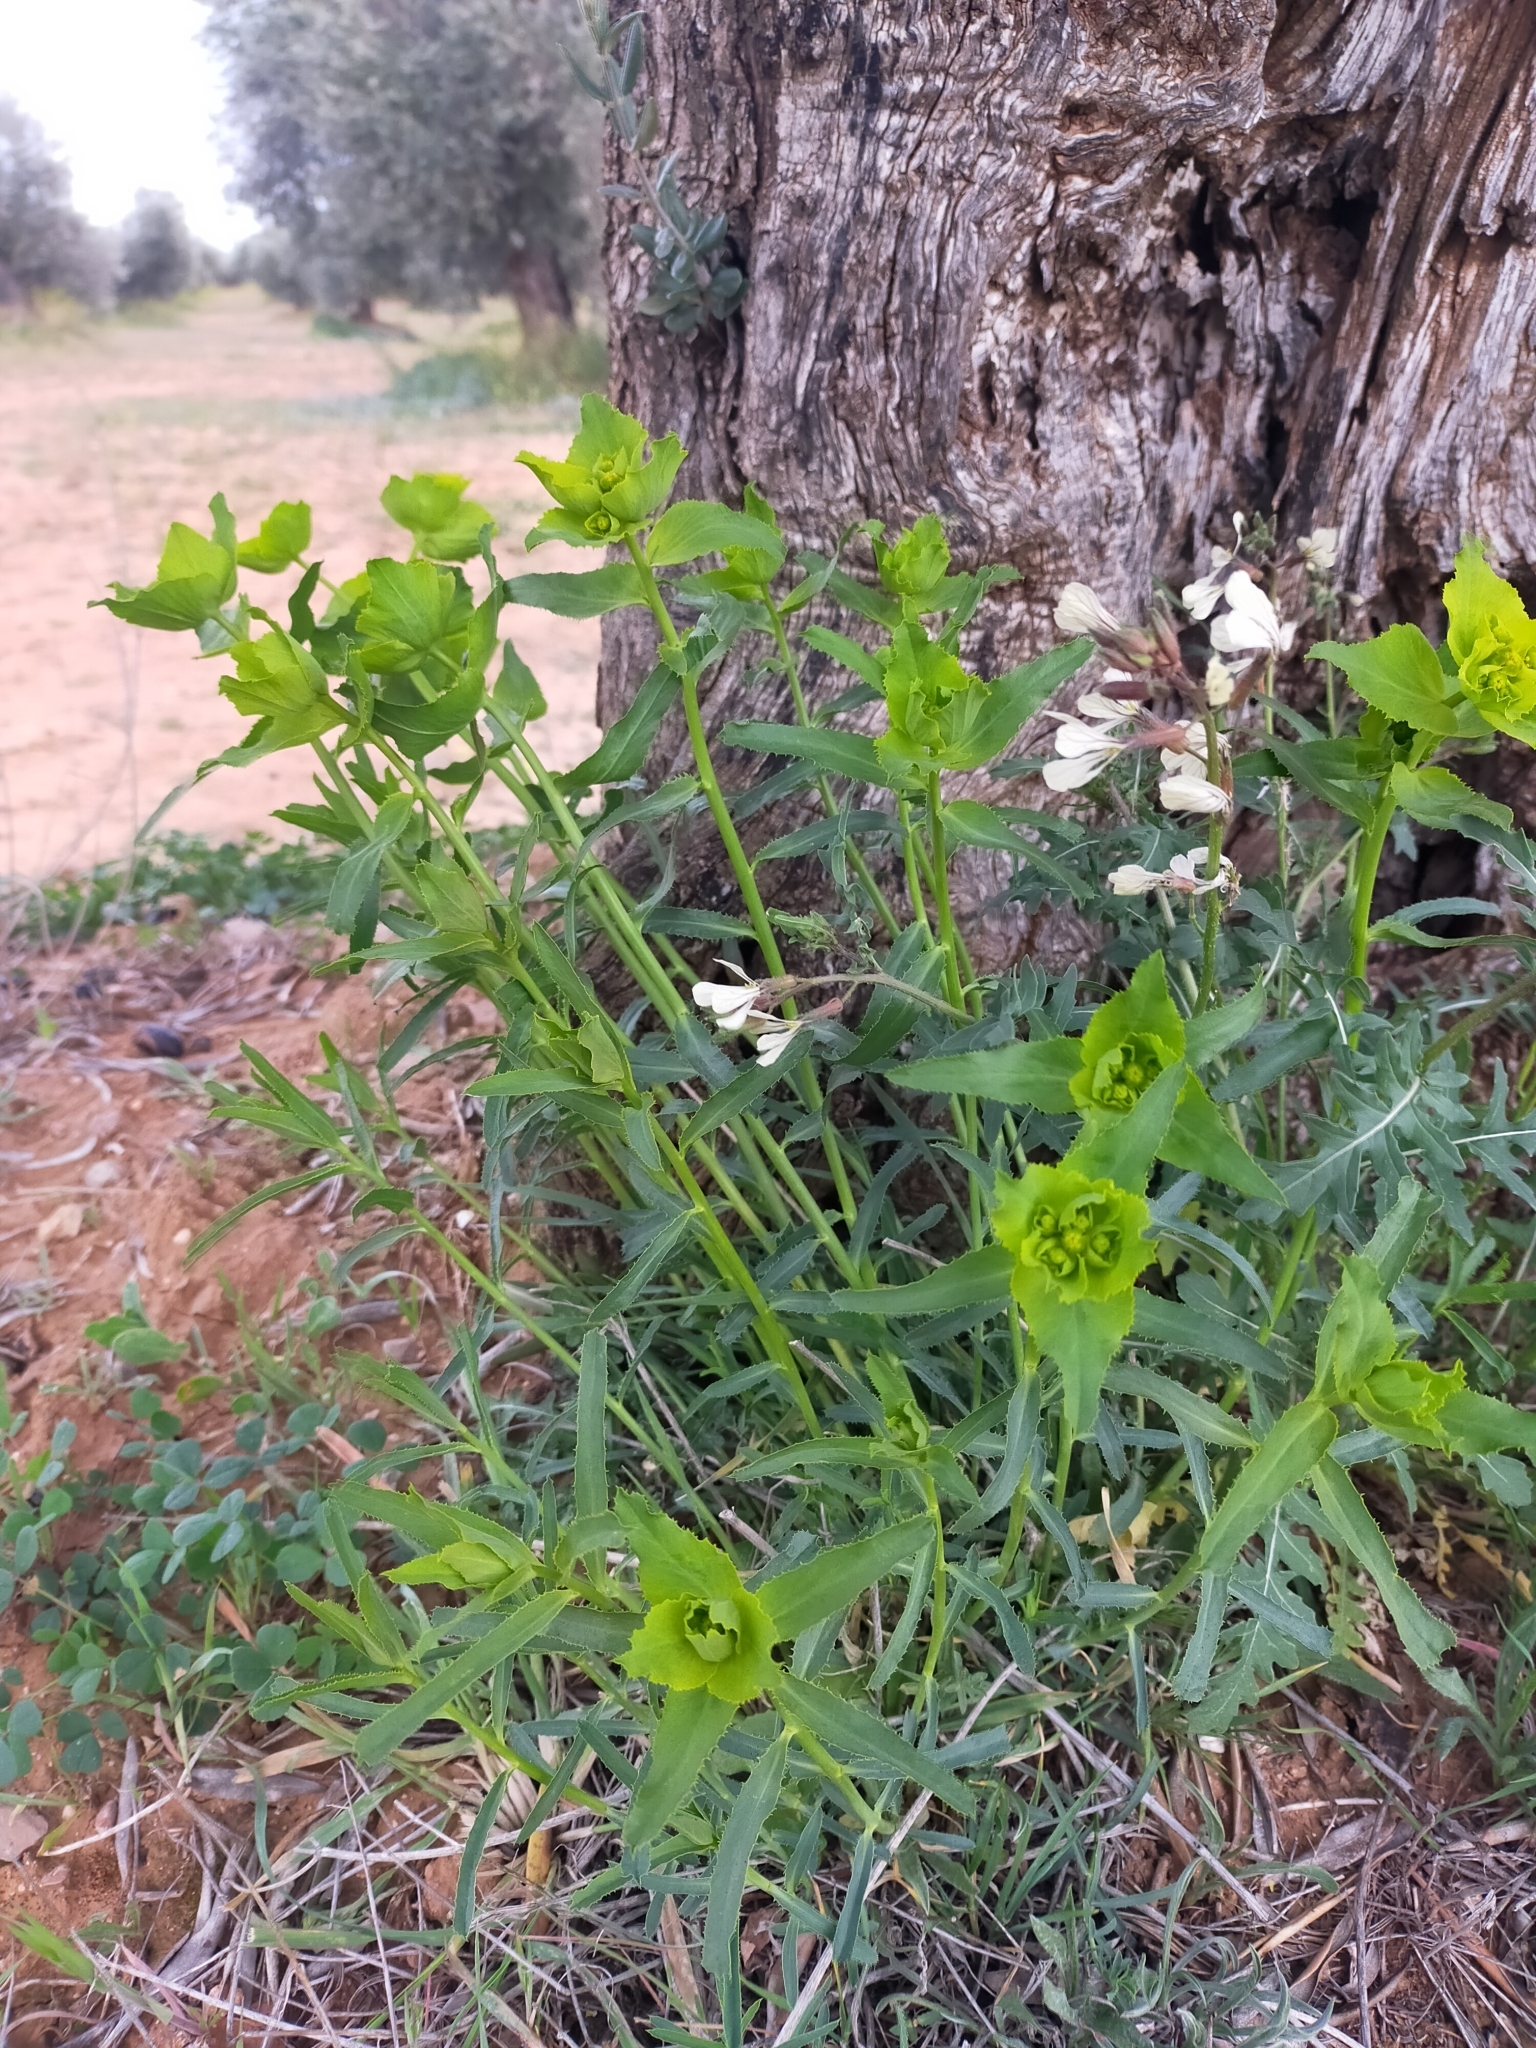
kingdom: Plantae
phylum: Tracheophyta
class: Magnoliopsida
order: Malpighiales
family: Euphorbiaceae
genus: Euphorbia
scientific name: Euphorbia serrata
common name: Serrate spurge
